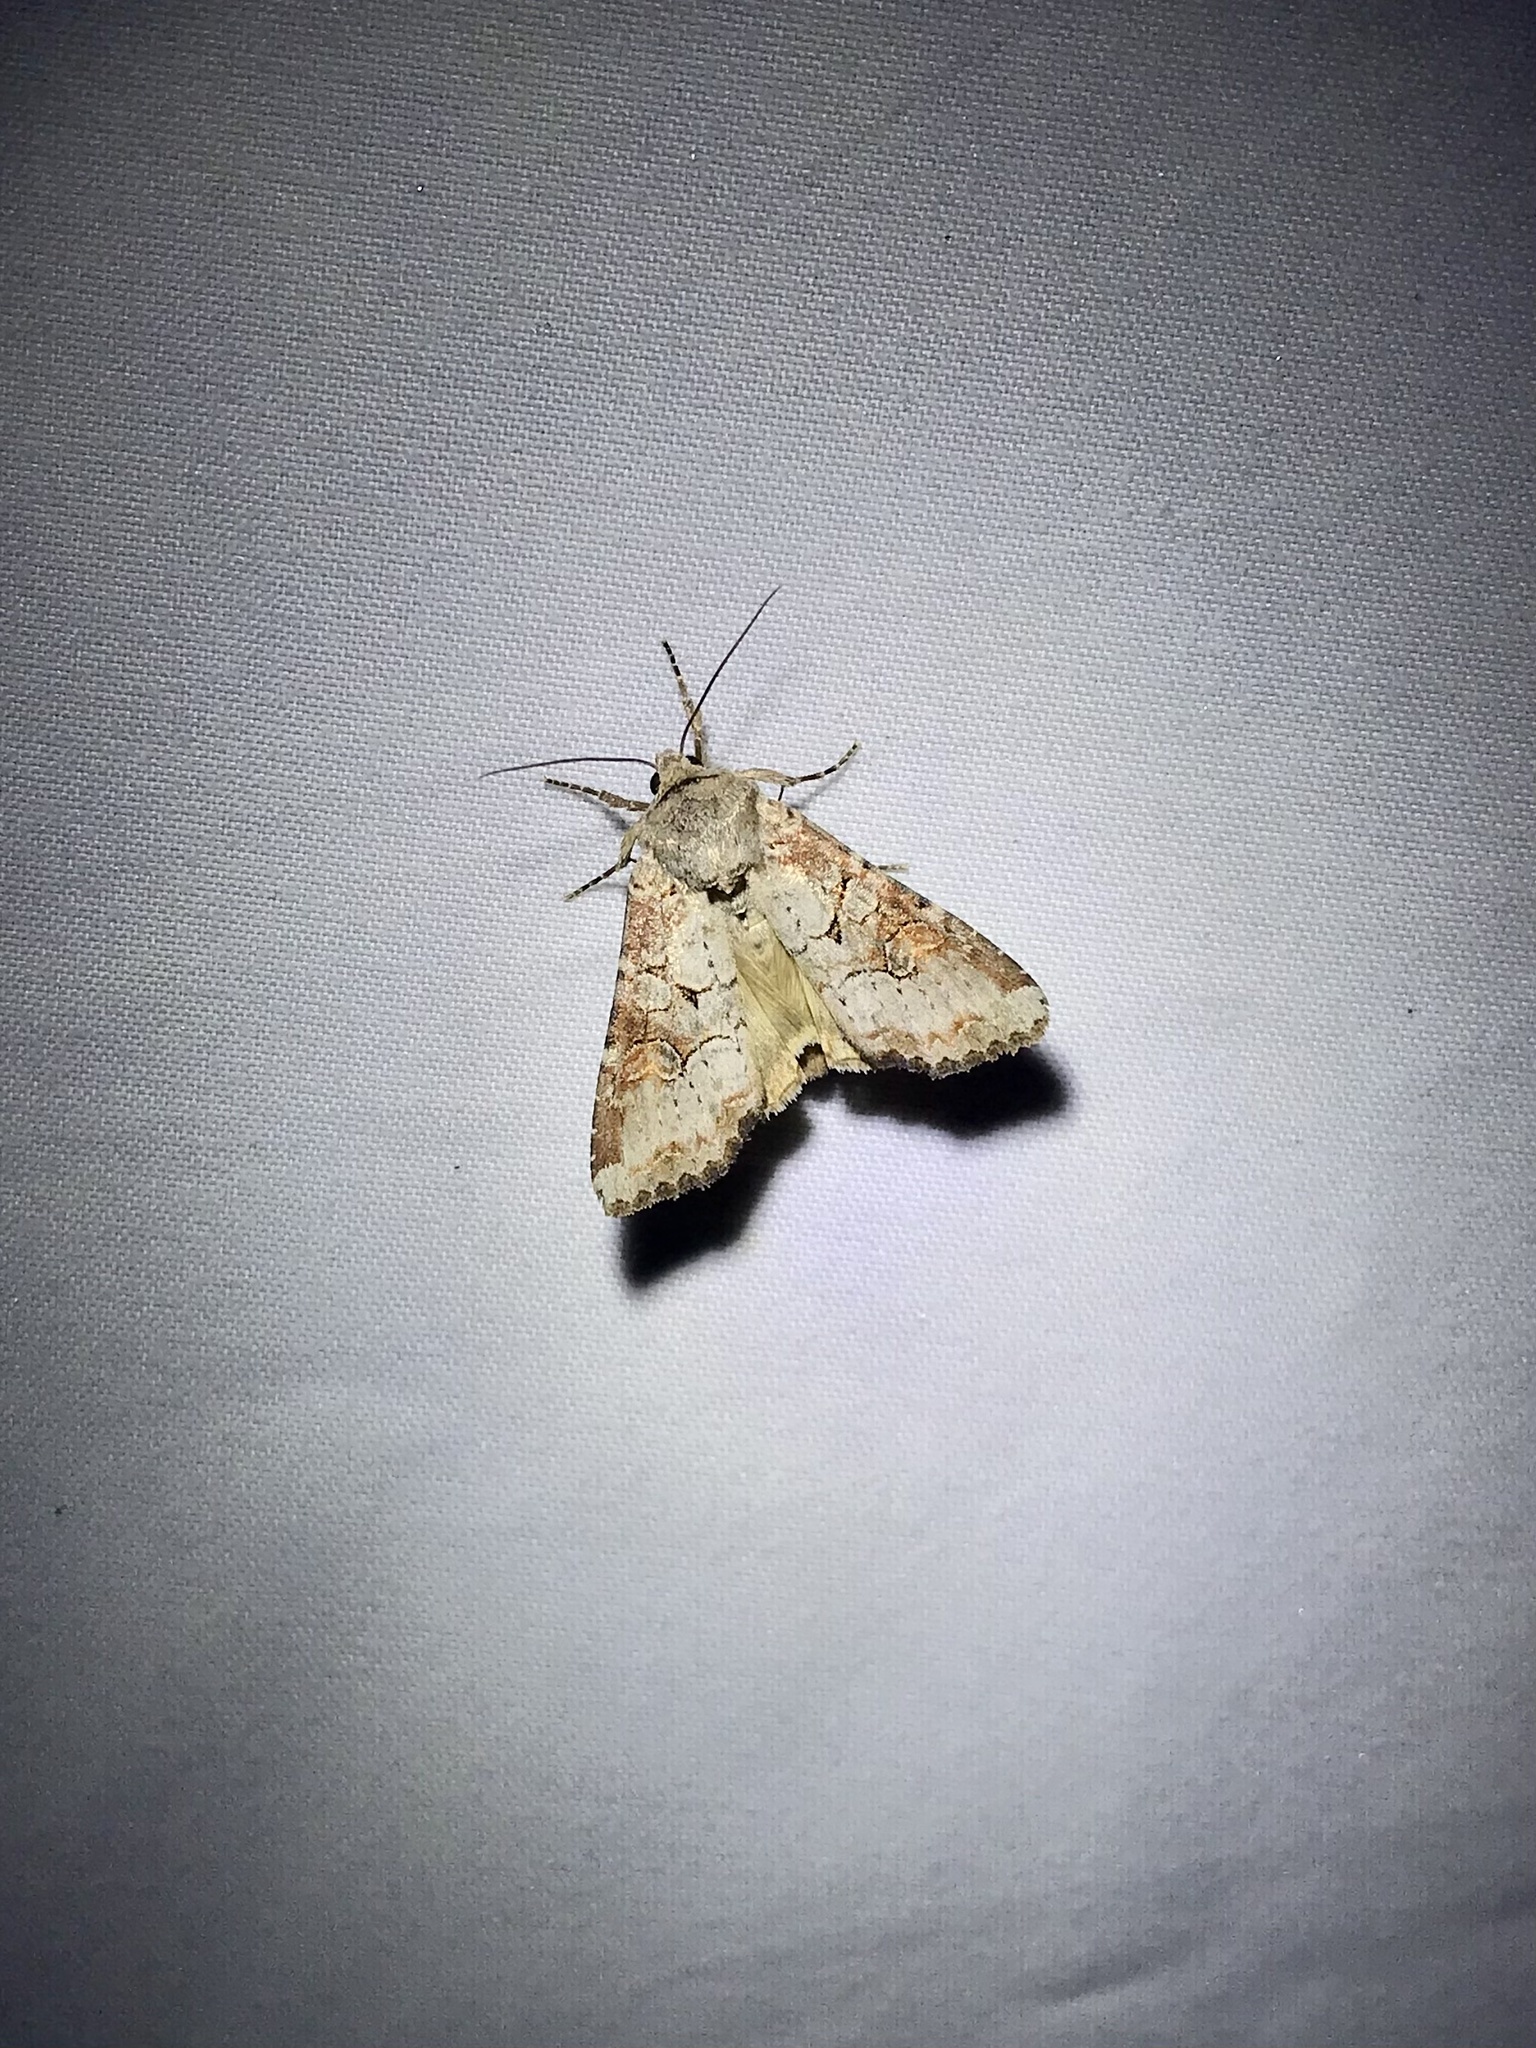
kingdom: Animalia
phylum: Arthropoda
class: Insecta
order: Lepidoptera
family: Noctuidae
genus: Trichordestra
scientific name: Trichordestra legitima
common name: Striped garden caterpillar
